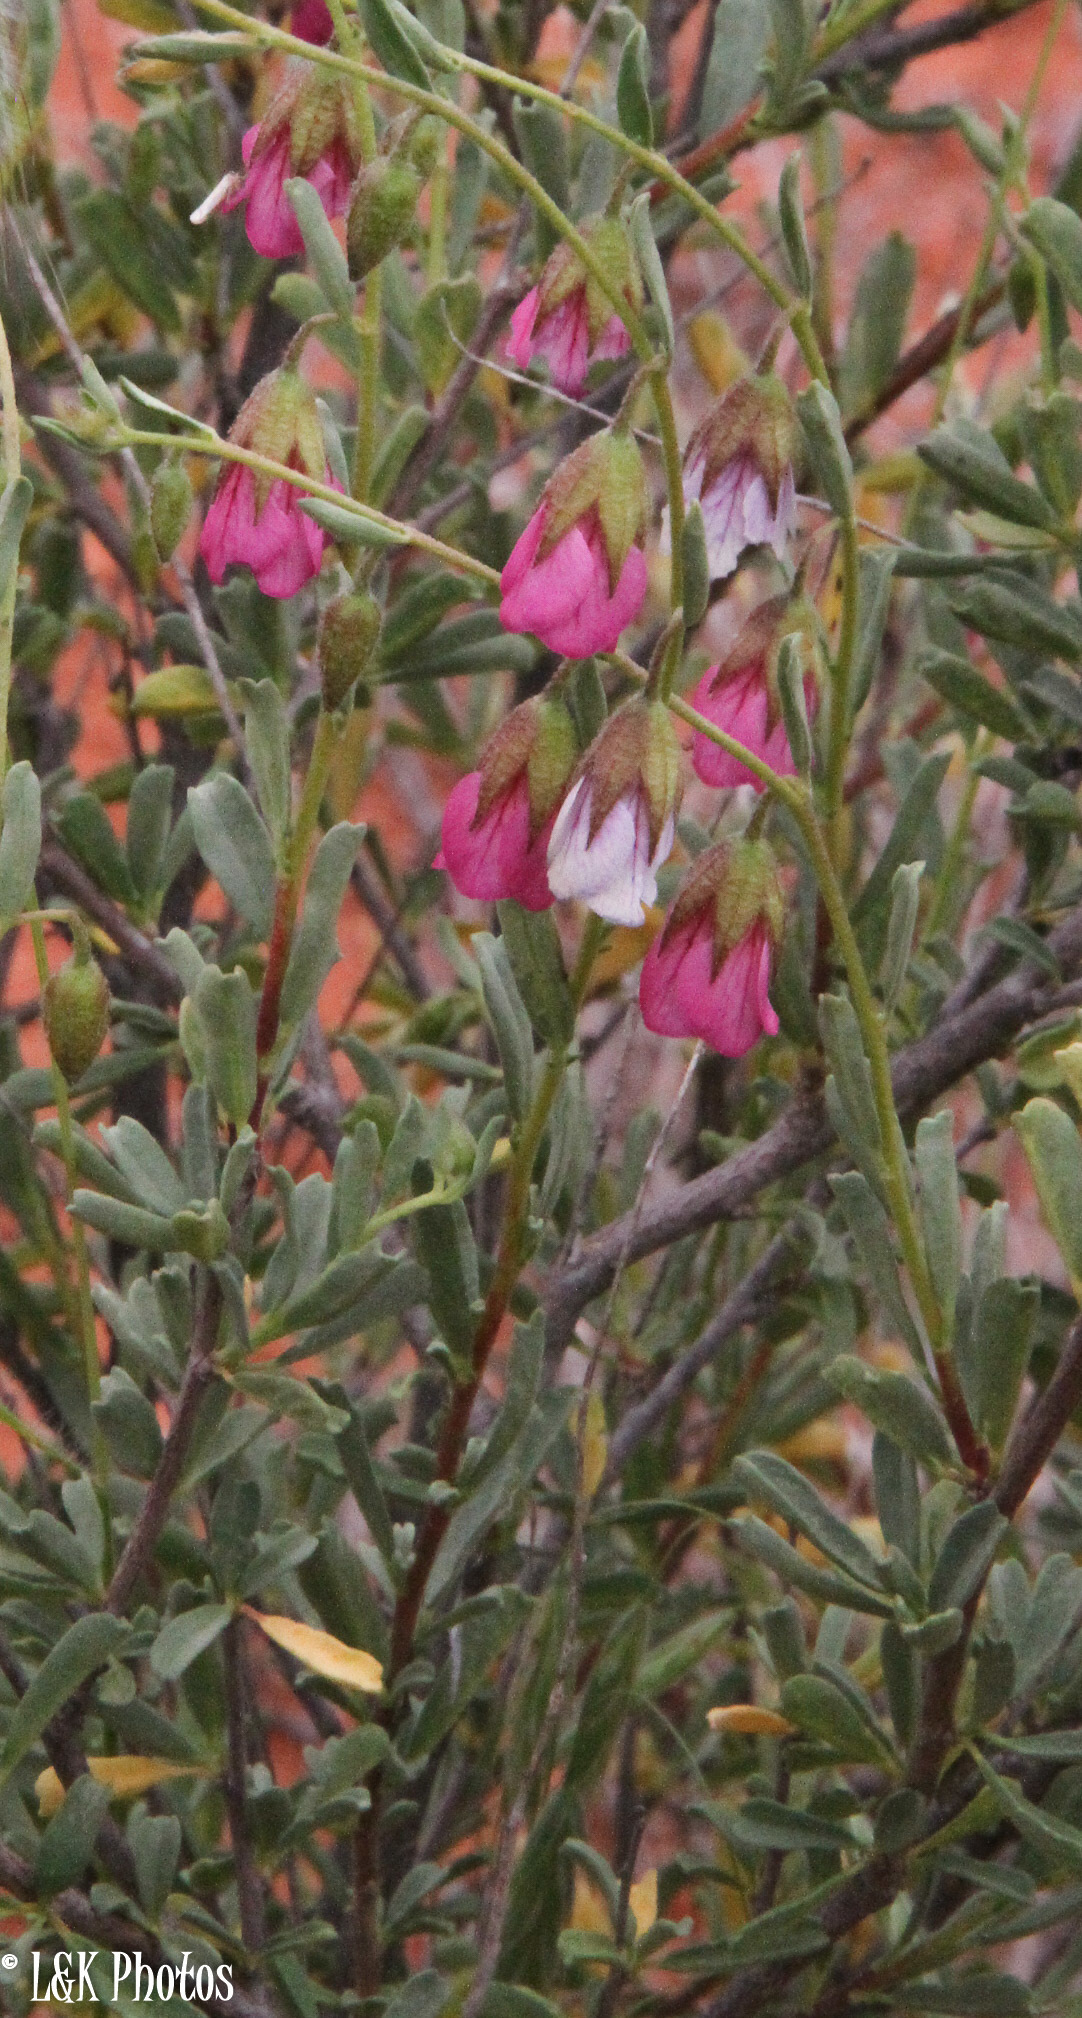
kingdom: Plantae
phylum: Tracheophyta
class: Magnoliopsida
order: Malvales
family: Malvaceae
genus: Hermannia
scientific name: Hermannia trifurca
